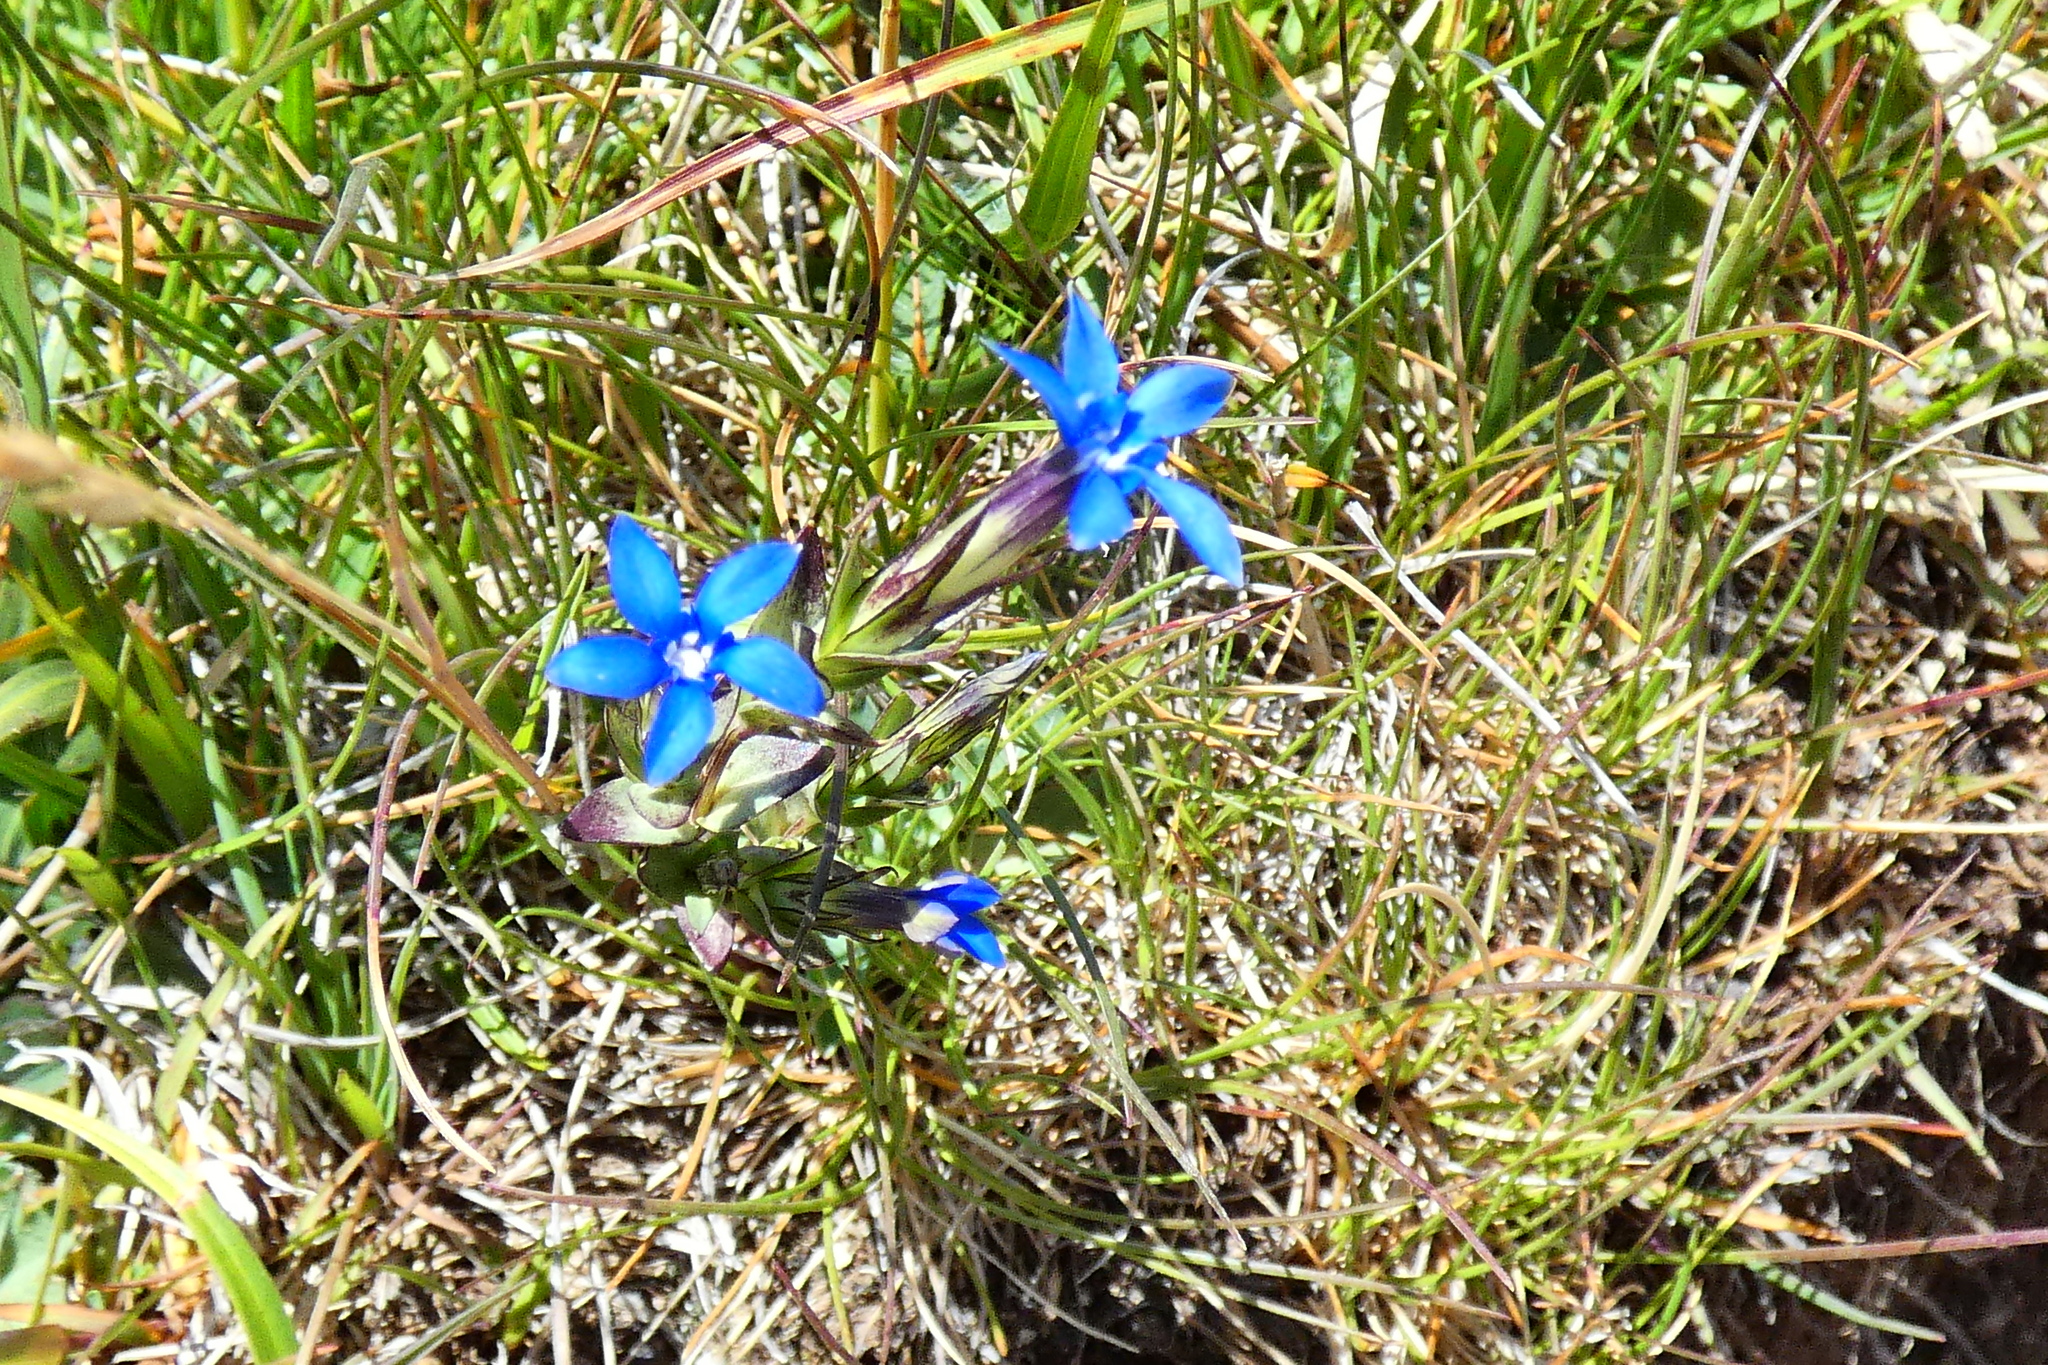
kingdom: Plantae
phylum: Tracheophyta
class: Magnoliopsida
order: Gentianales
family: Gentianaceae
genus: Gentiana
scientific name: Gentiana nivalis
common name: Alpine gentian
